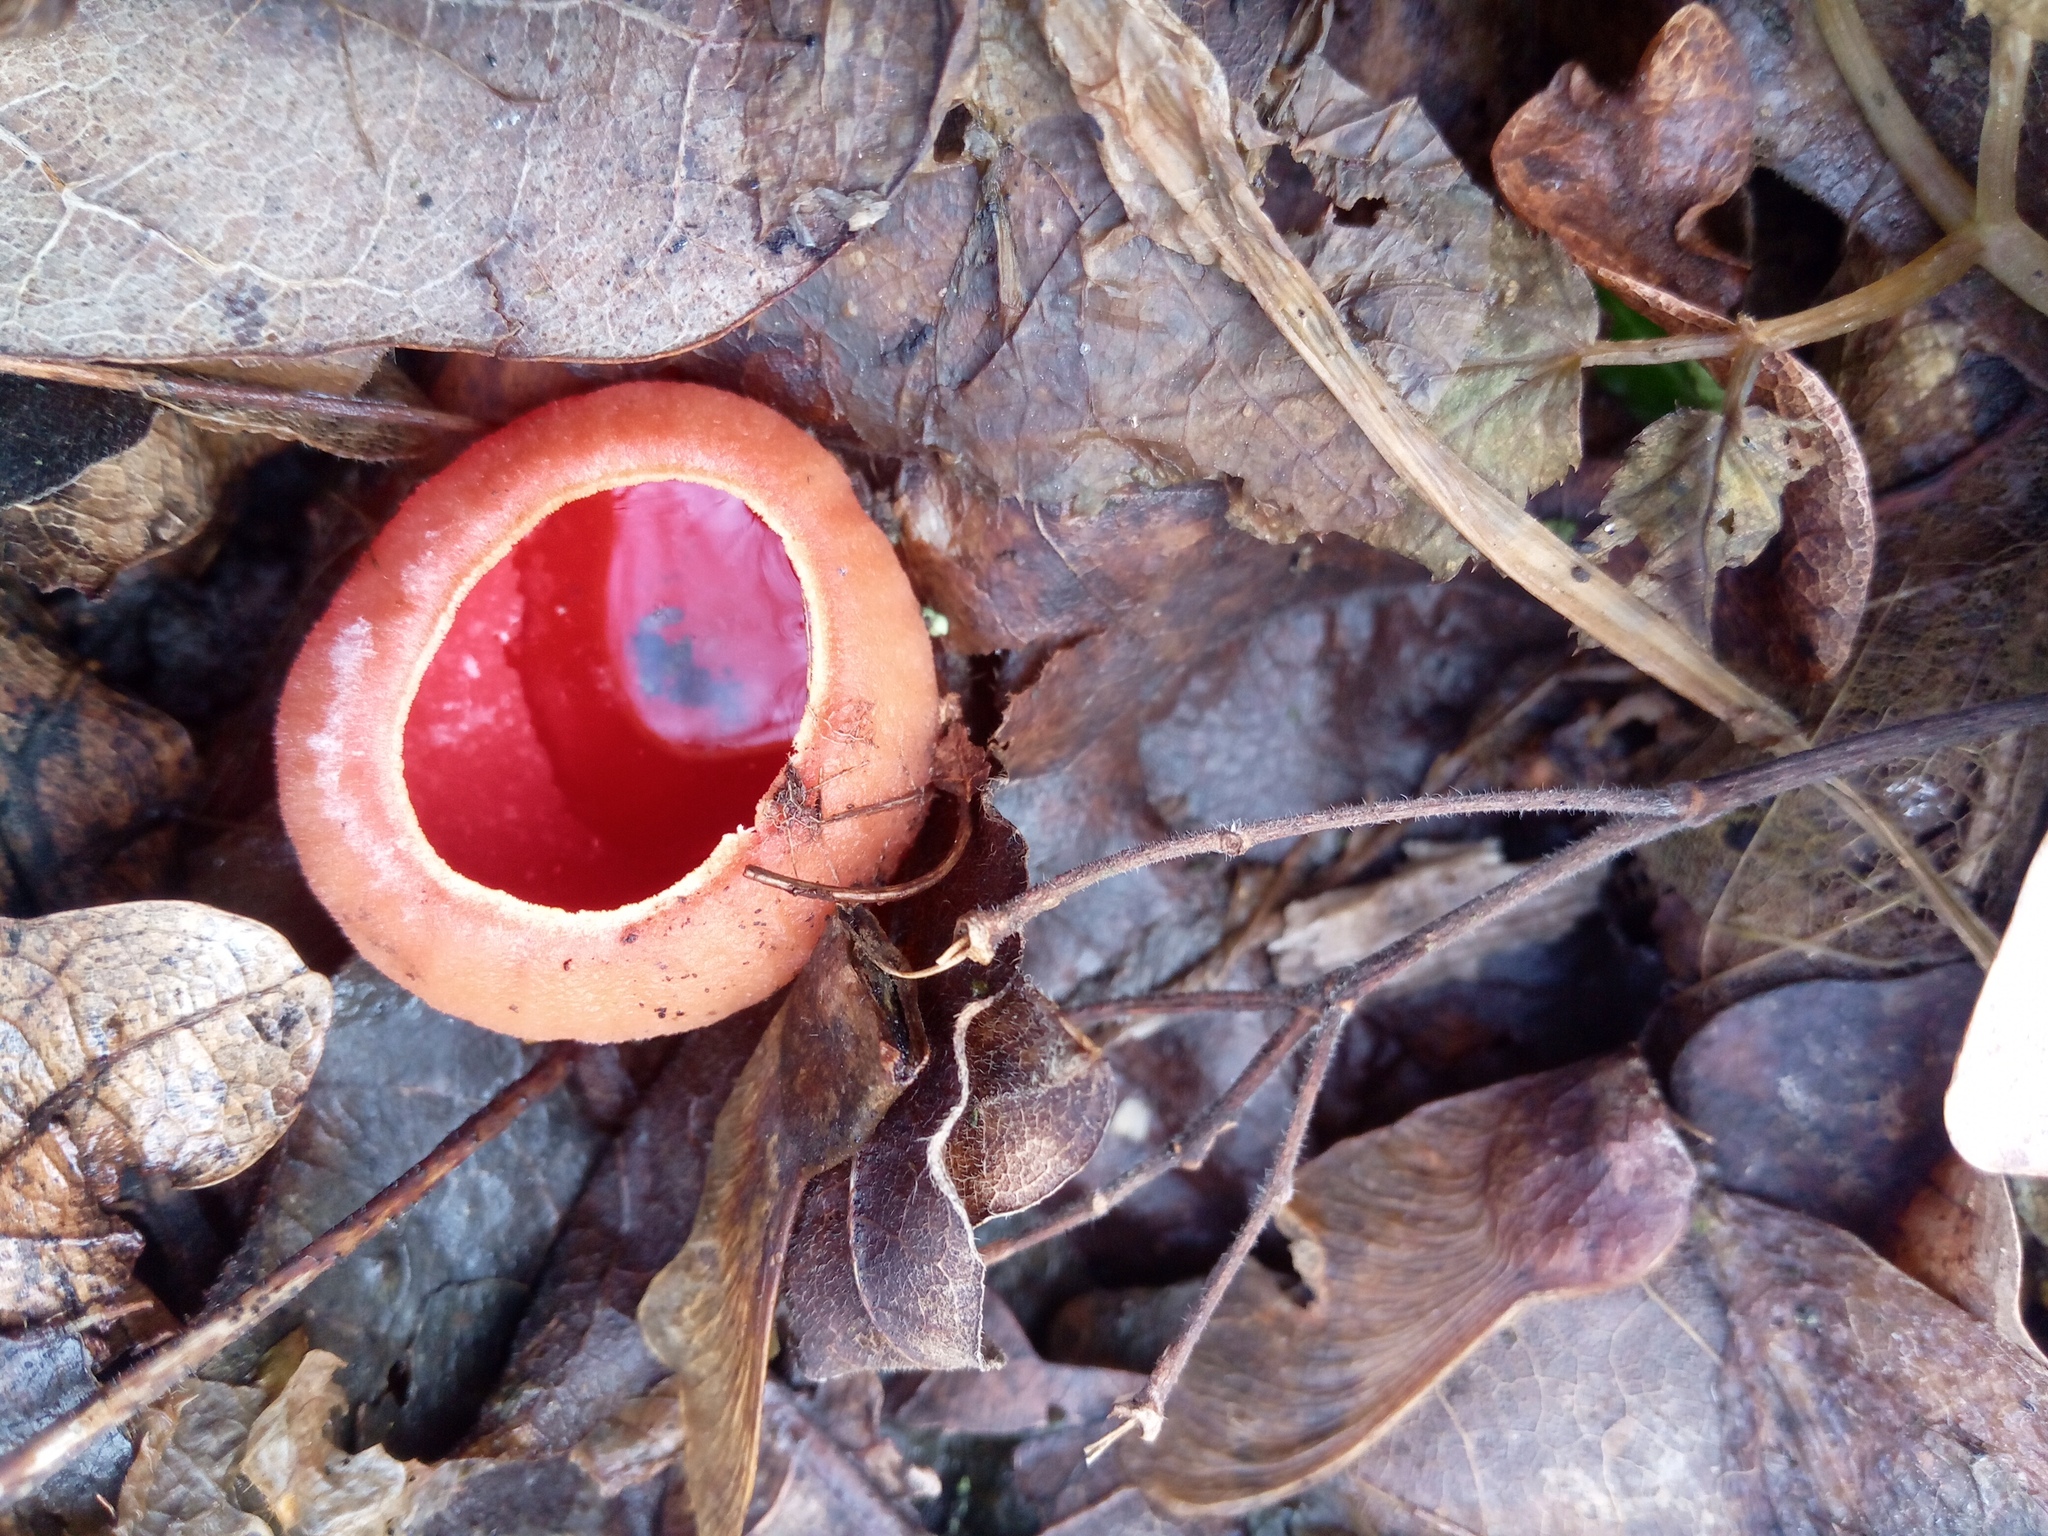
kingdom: Fungi
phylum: Ascomycota
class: Pezizomycetes
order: Pezizales
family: Sarcoscyphaceae
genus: Sarcoscypha
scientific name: Sarcoscypha
